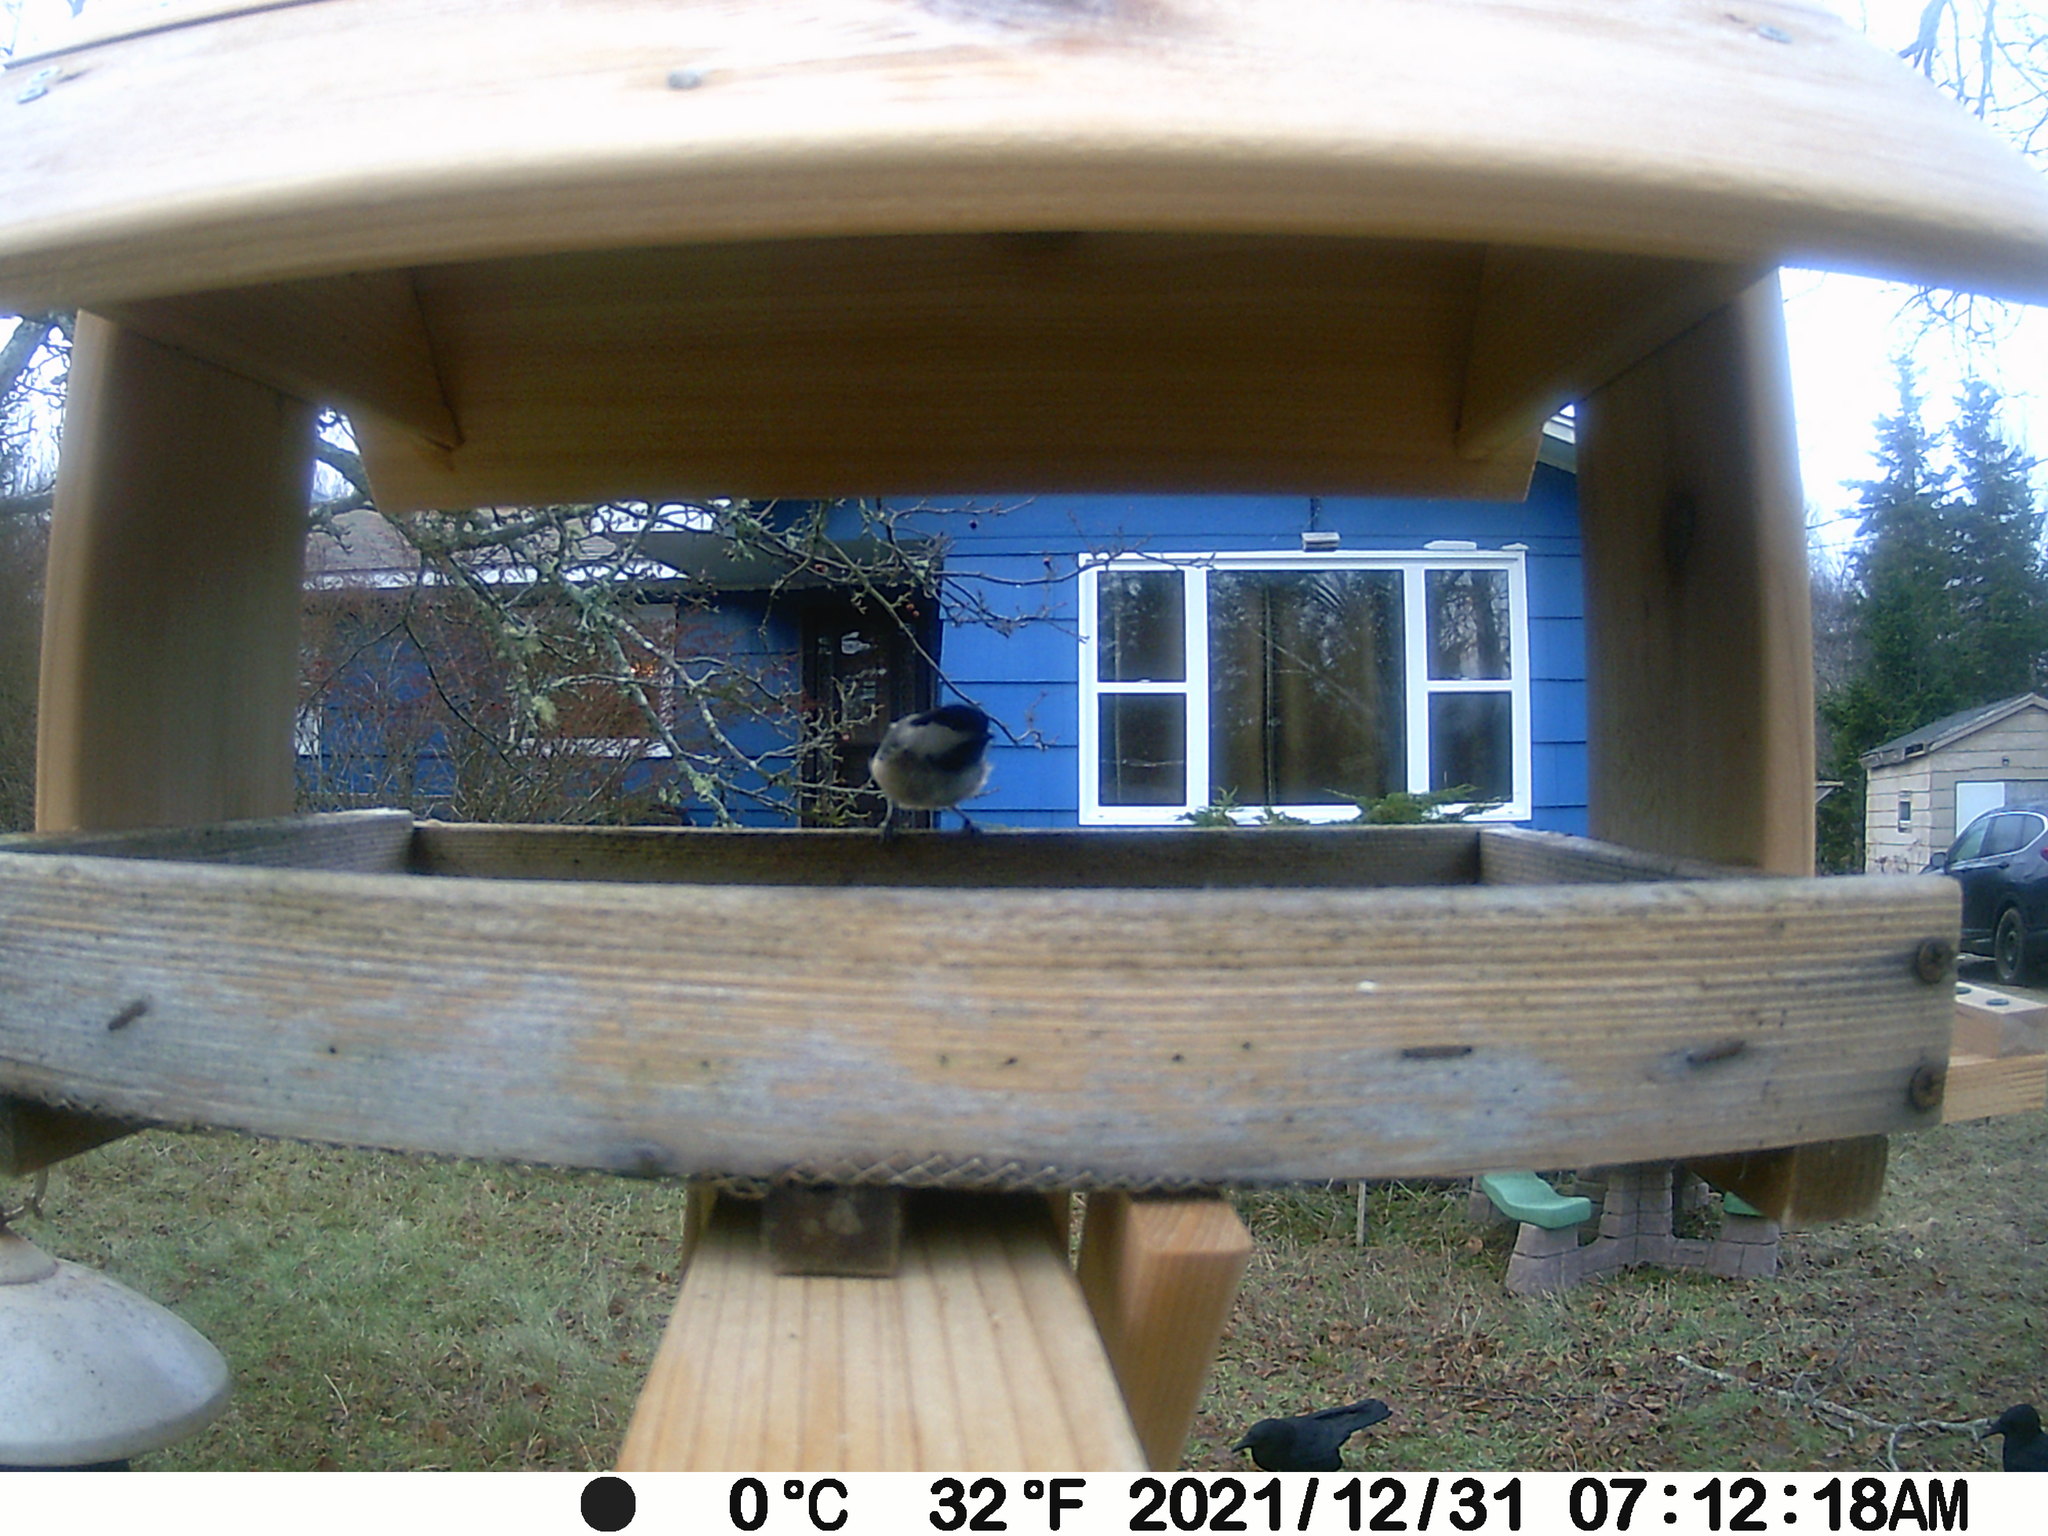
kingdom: Animalia
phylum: Chordata
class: Aves
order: Passeriformes
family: Corvidae
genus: Corvus
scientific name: Corvus brachyrhynchos
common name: American crow
